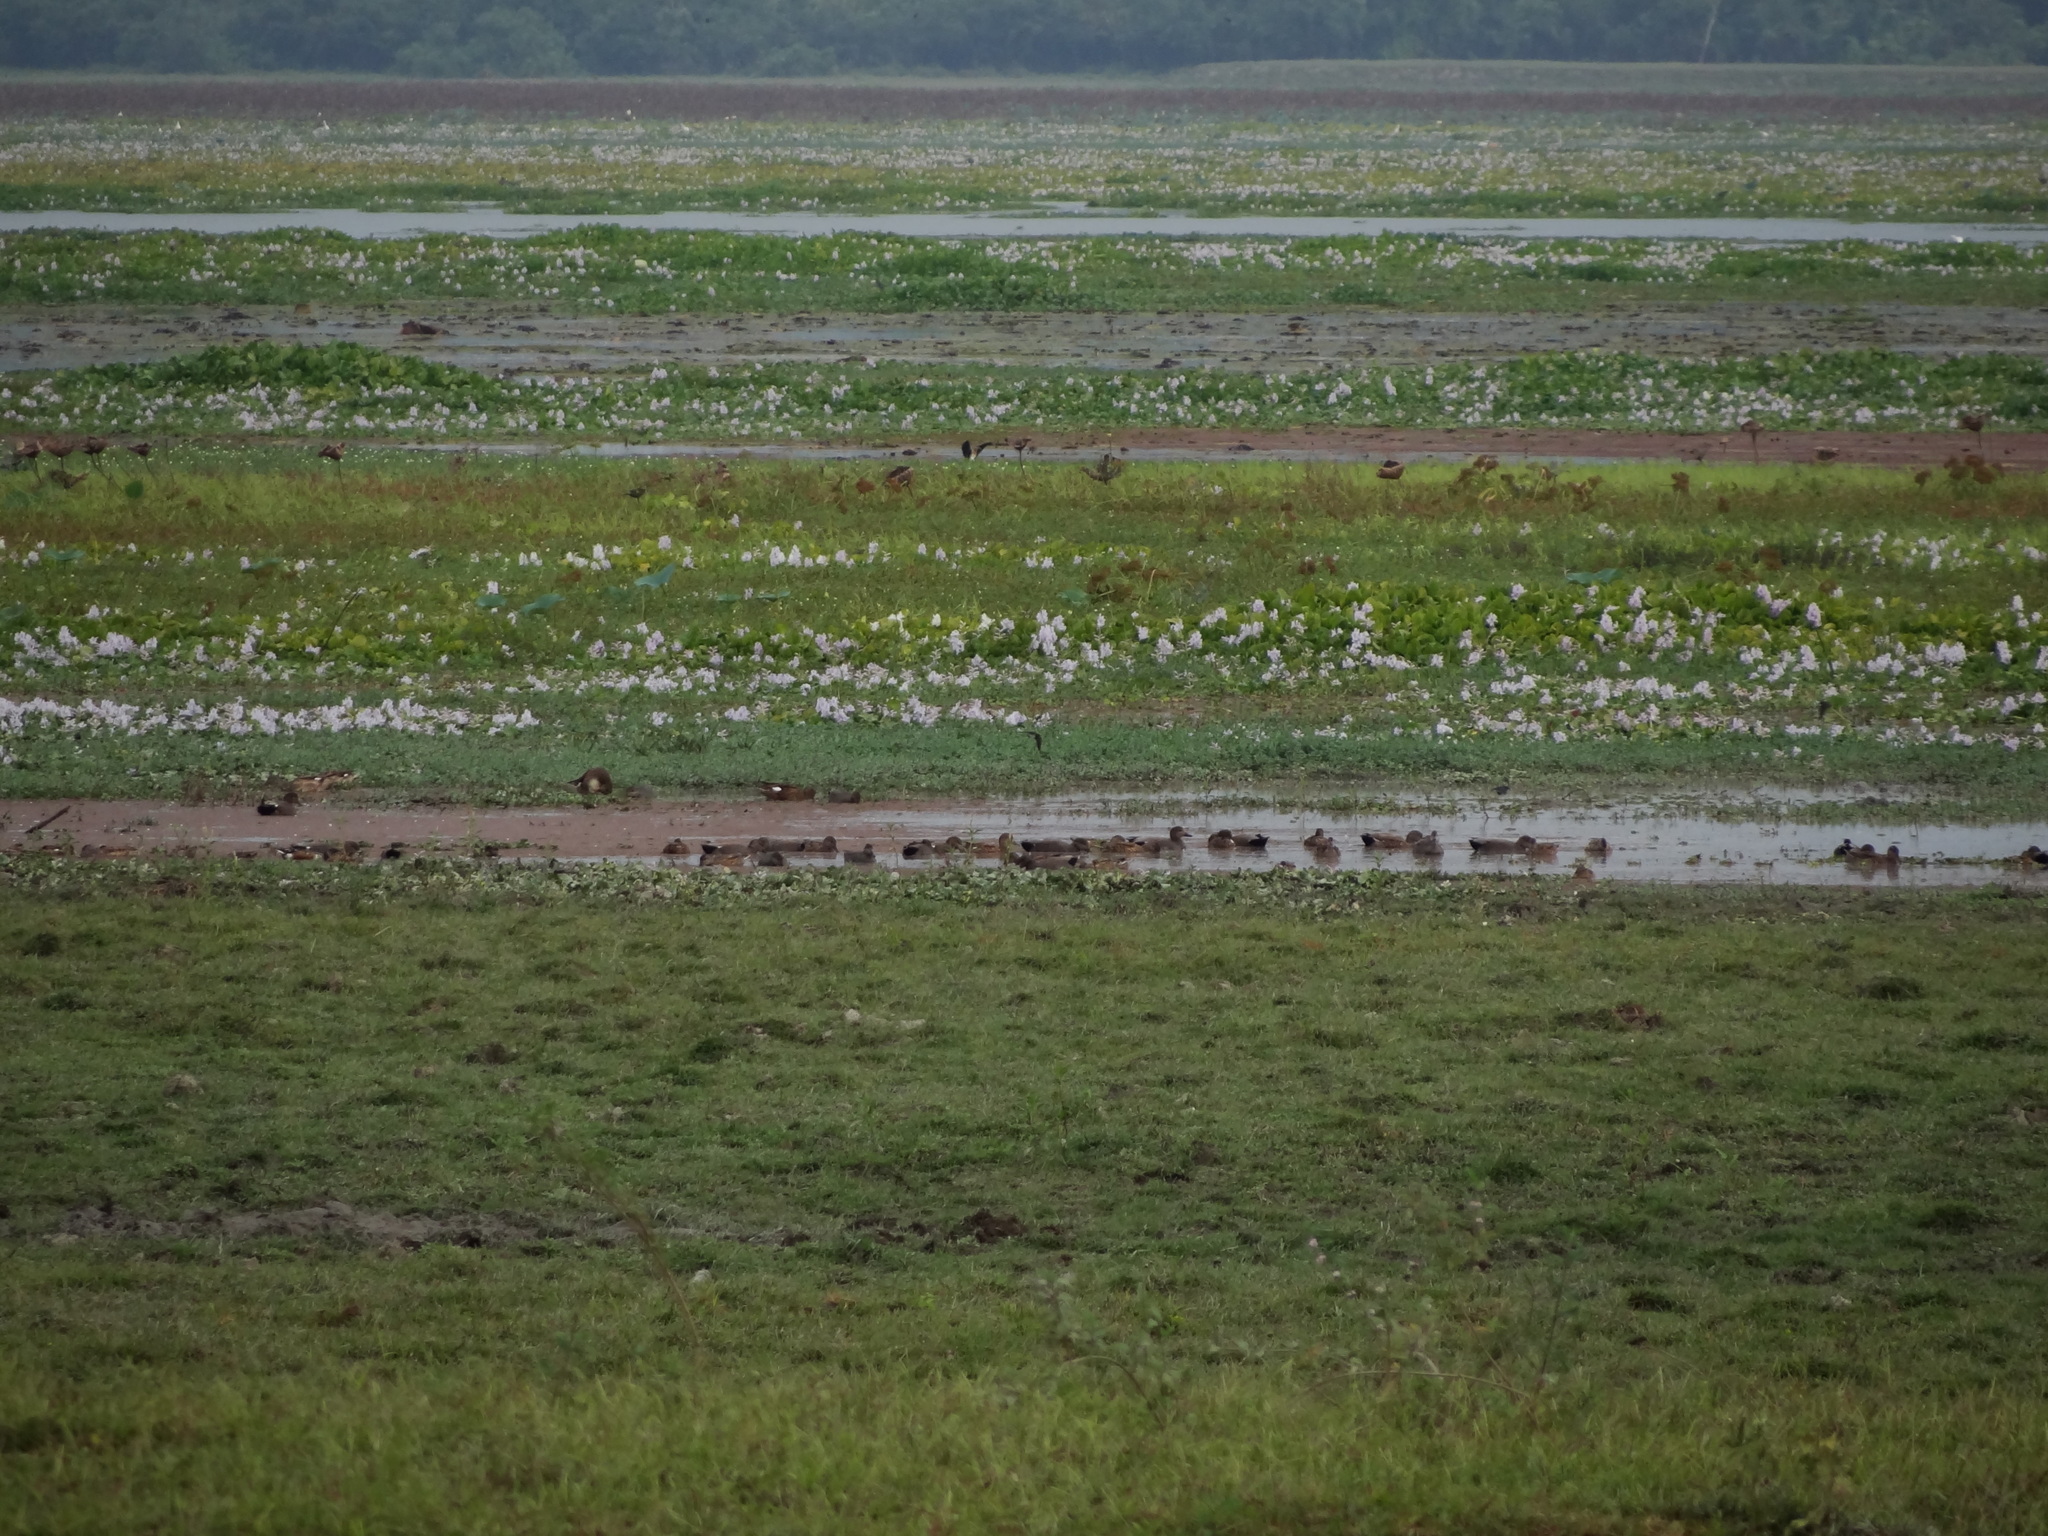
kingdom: Animalia
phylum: Chordata
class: Aves
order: Anseriformes
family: Anatidae
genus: Mareca
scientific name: Mareca strepera
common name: Gadwall
